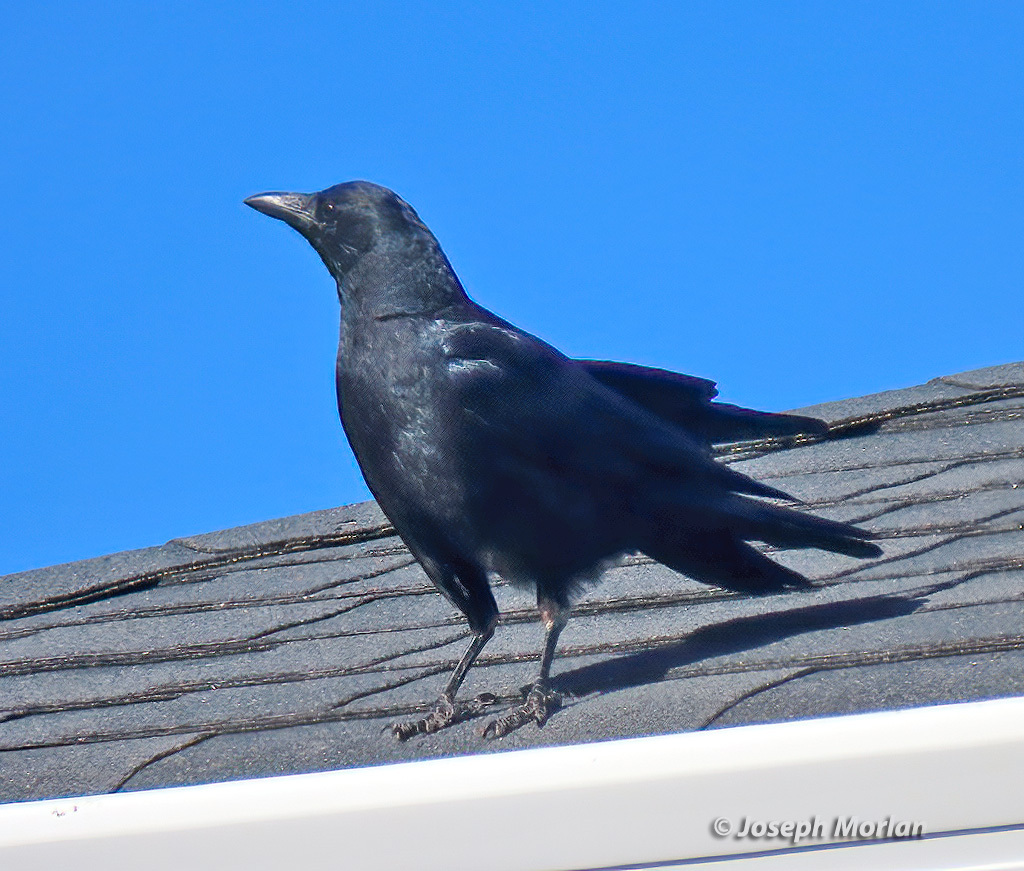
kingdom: Animalia
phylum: Chordata
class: Aves
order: Passeriformes
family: Corvidae
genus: Corvus
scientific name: Corvus brachyrhynchos
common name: American crow
